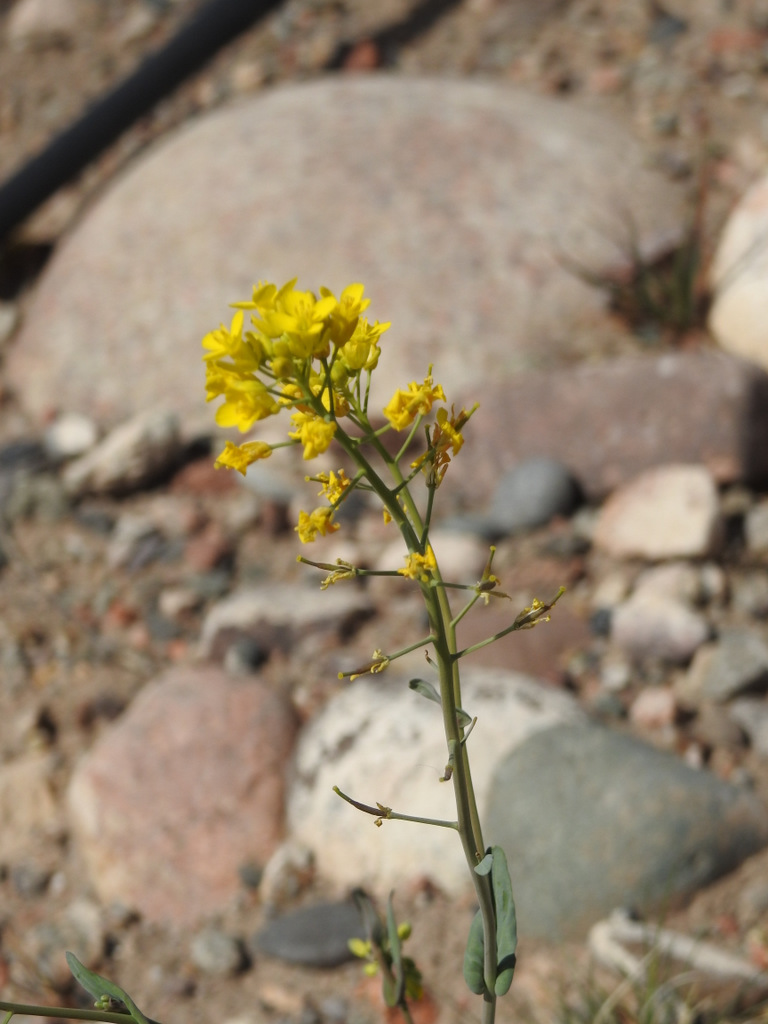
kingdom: Plantae
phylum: Tracheophyta
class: Magnoliopsida
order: Brassicales
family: Brassicaceae
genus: Brassica
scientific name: Brassica rapa
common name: Field mustard
